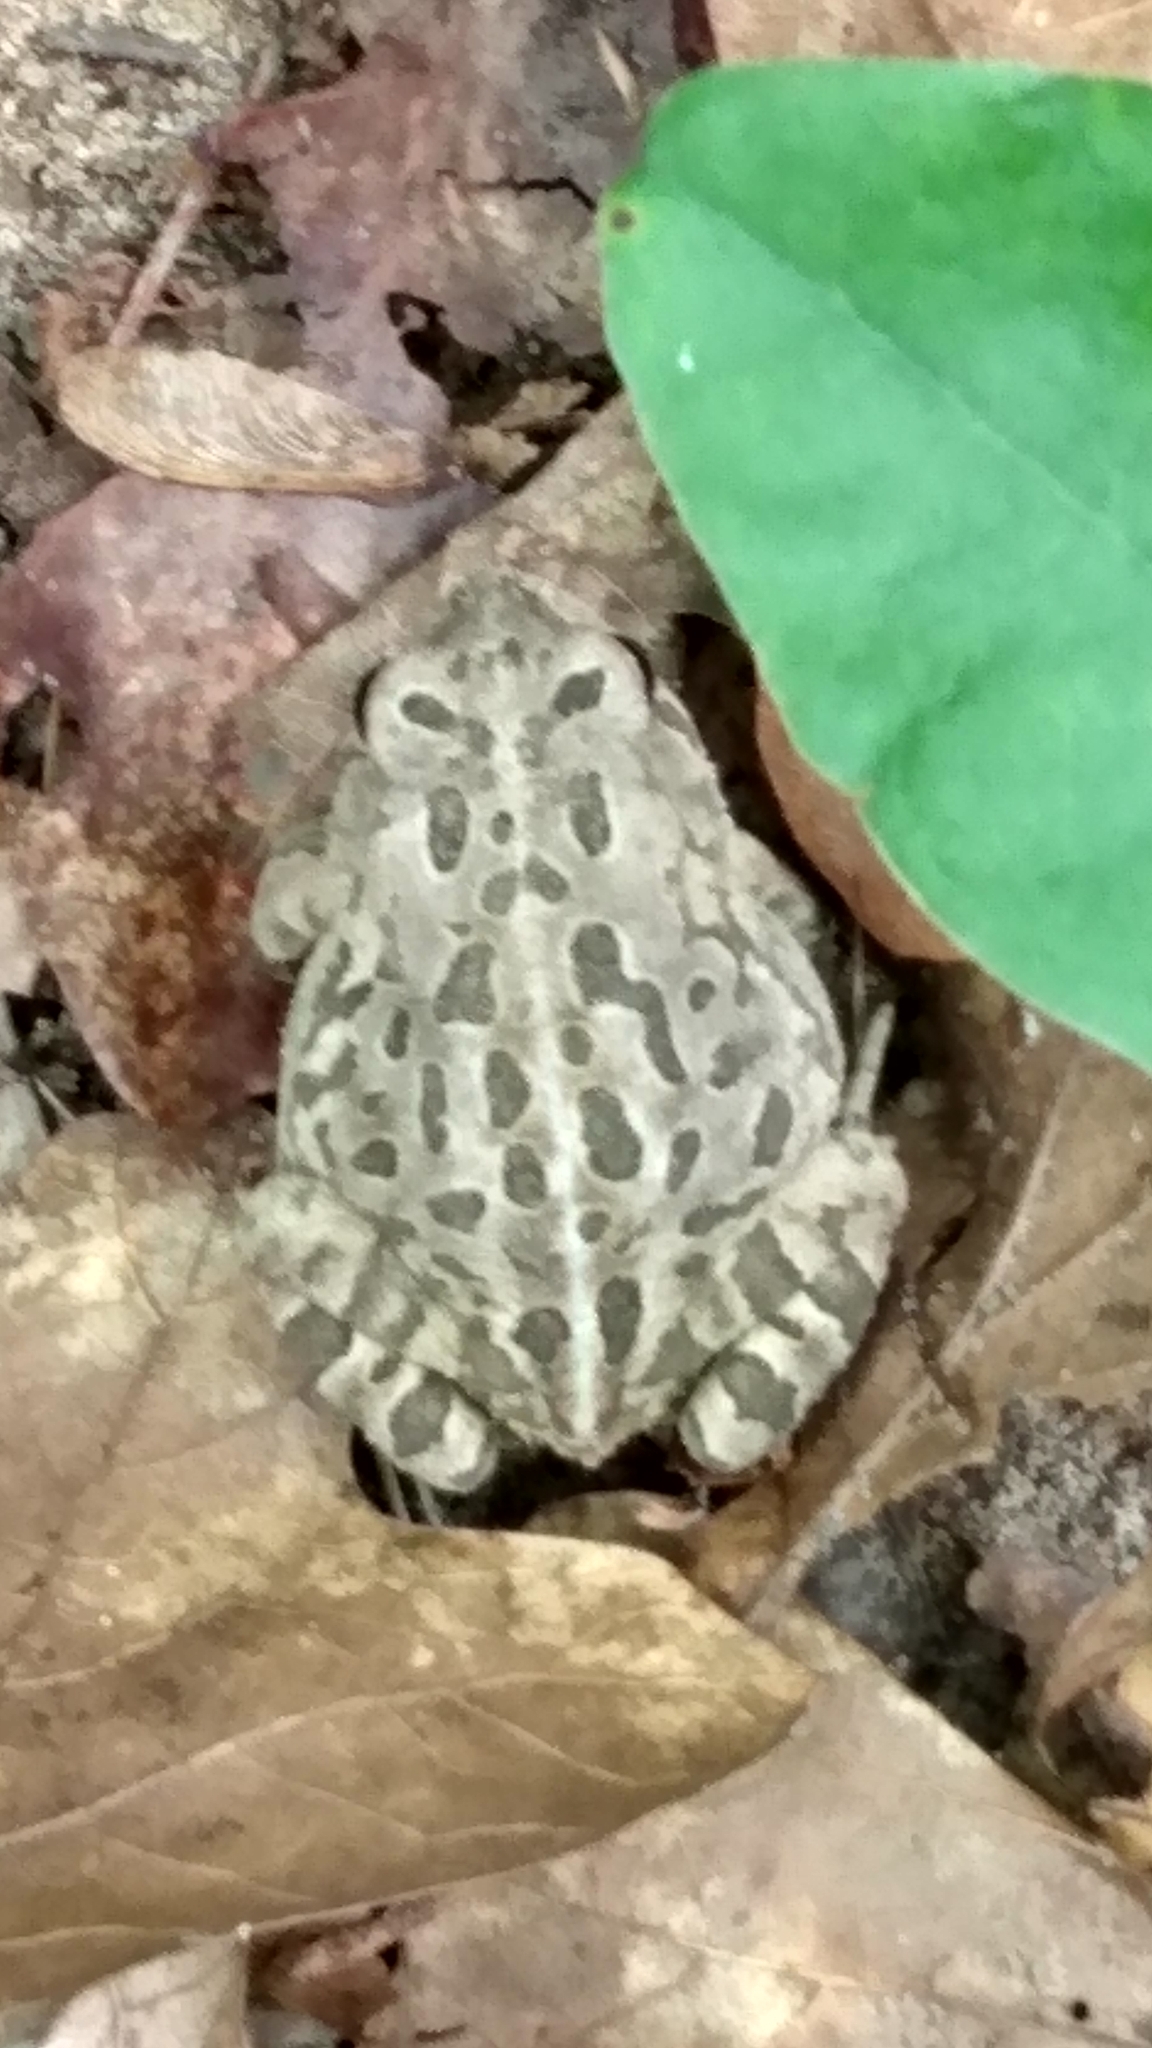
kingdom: Animalia
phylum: Chordata
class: Amphibia
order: Anura
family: Bufonidae
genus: Anaxyrus
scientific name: Anaxyrus fowleri
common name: Fowler's toad
